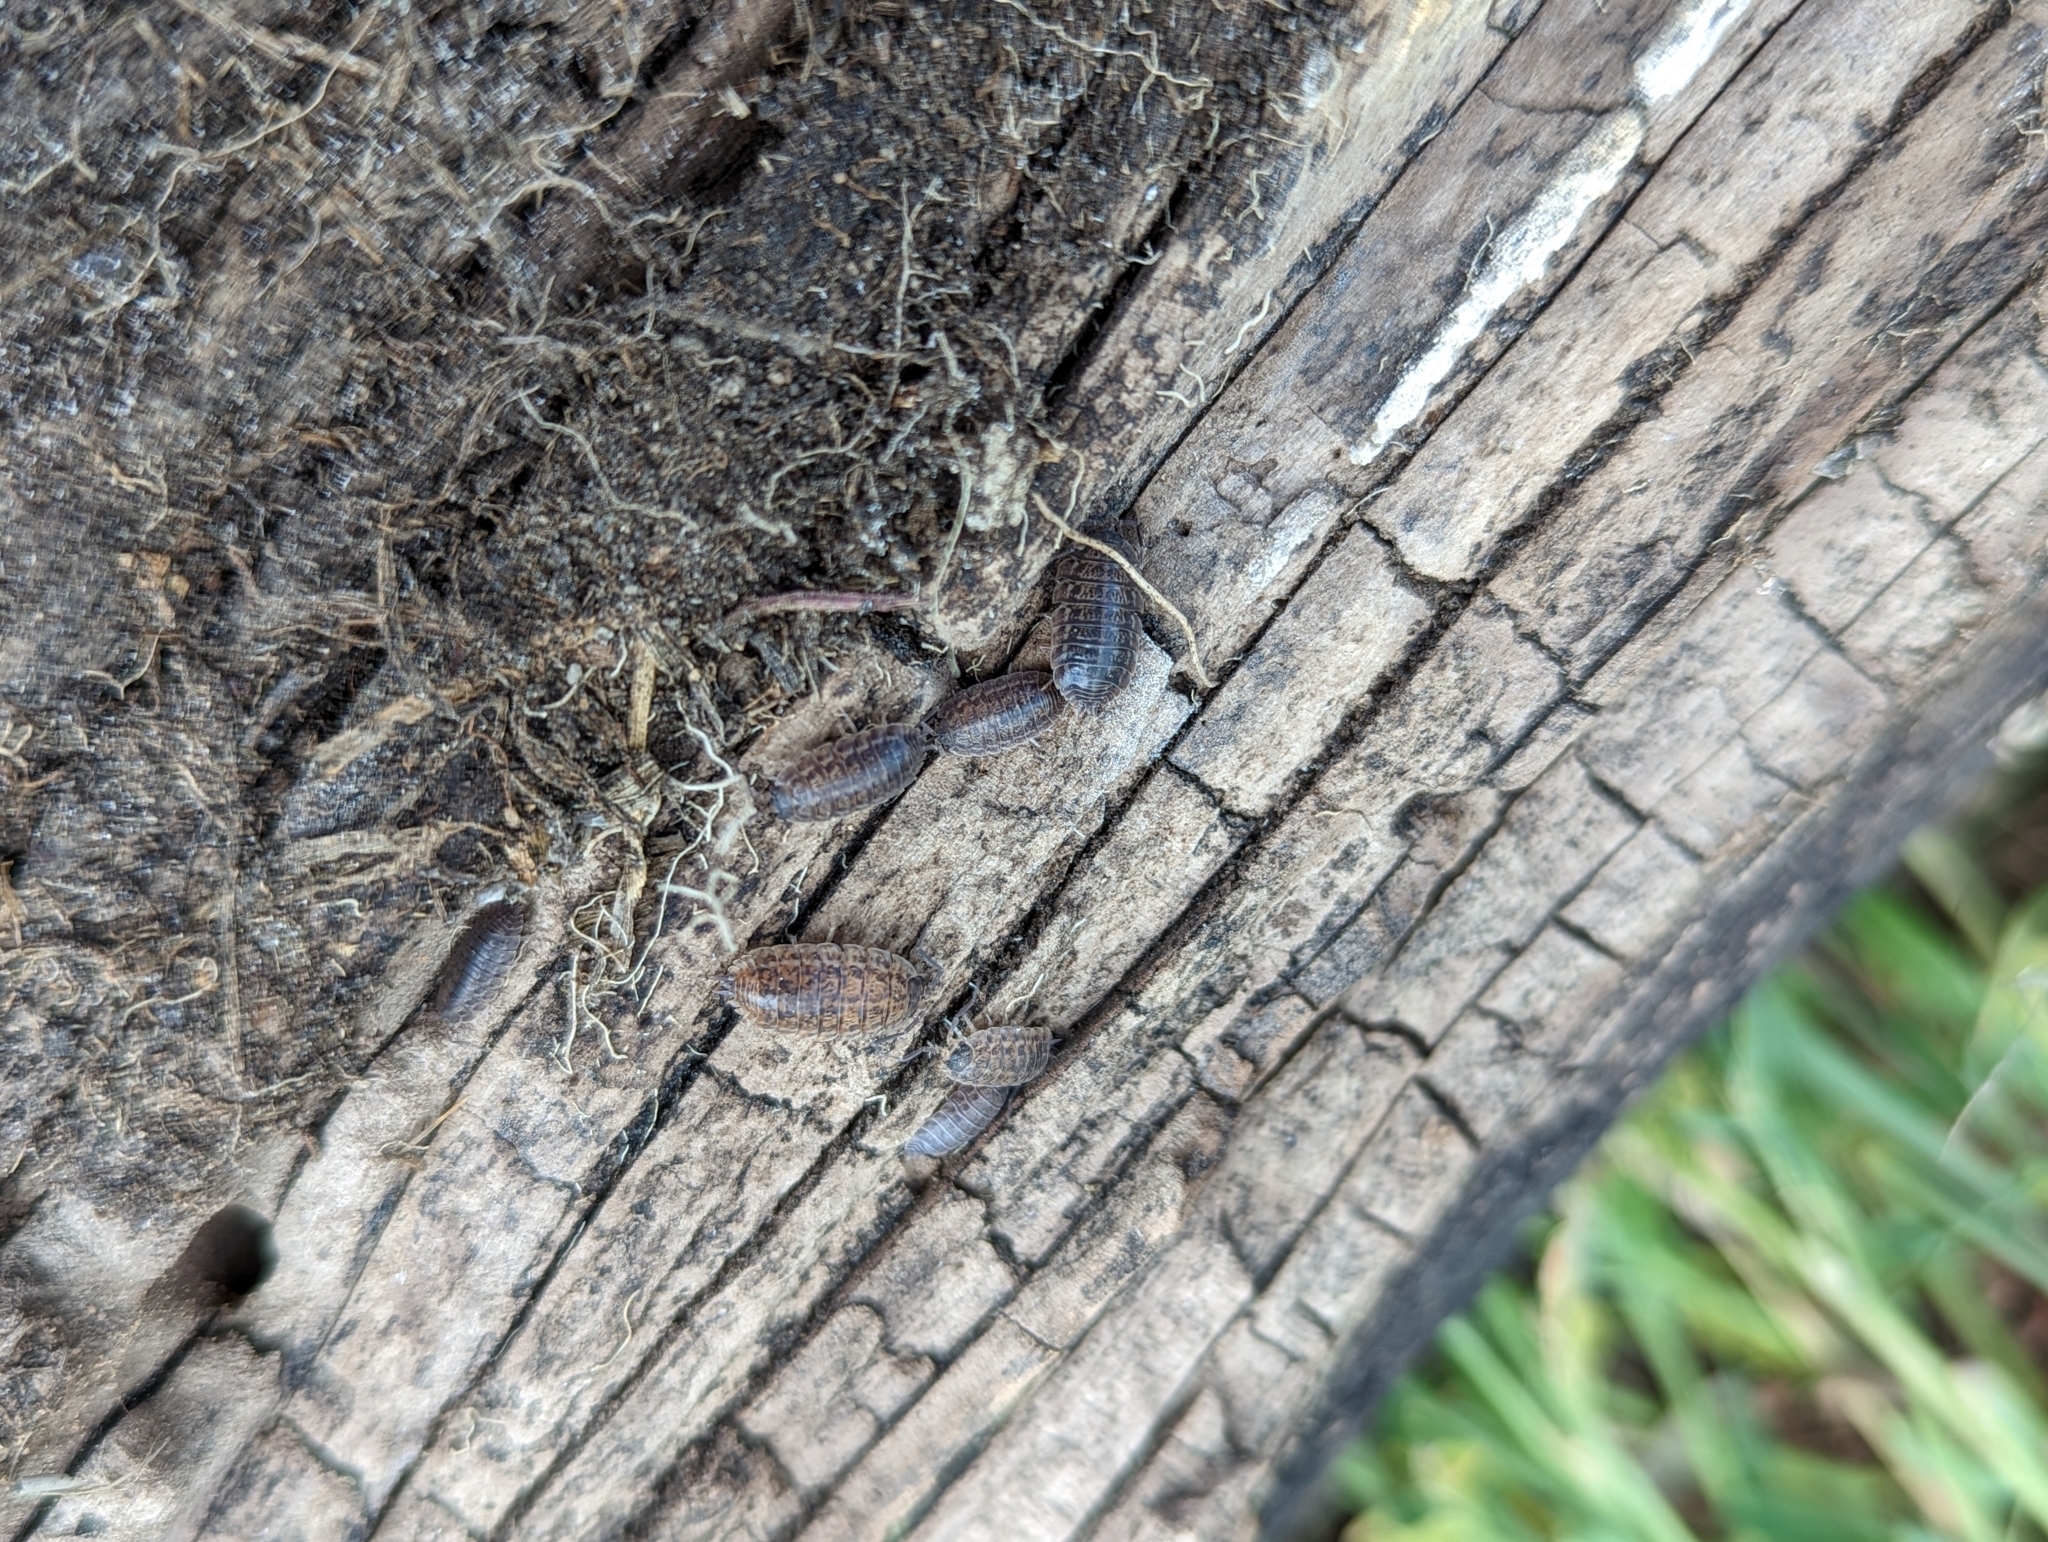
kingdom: Animalia
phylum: Arthropoda
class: Malacostraca
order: Isopoda
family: Trachelipodidae
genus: Trachelipus
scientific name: Trachelipus rathkii
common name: Isopod
